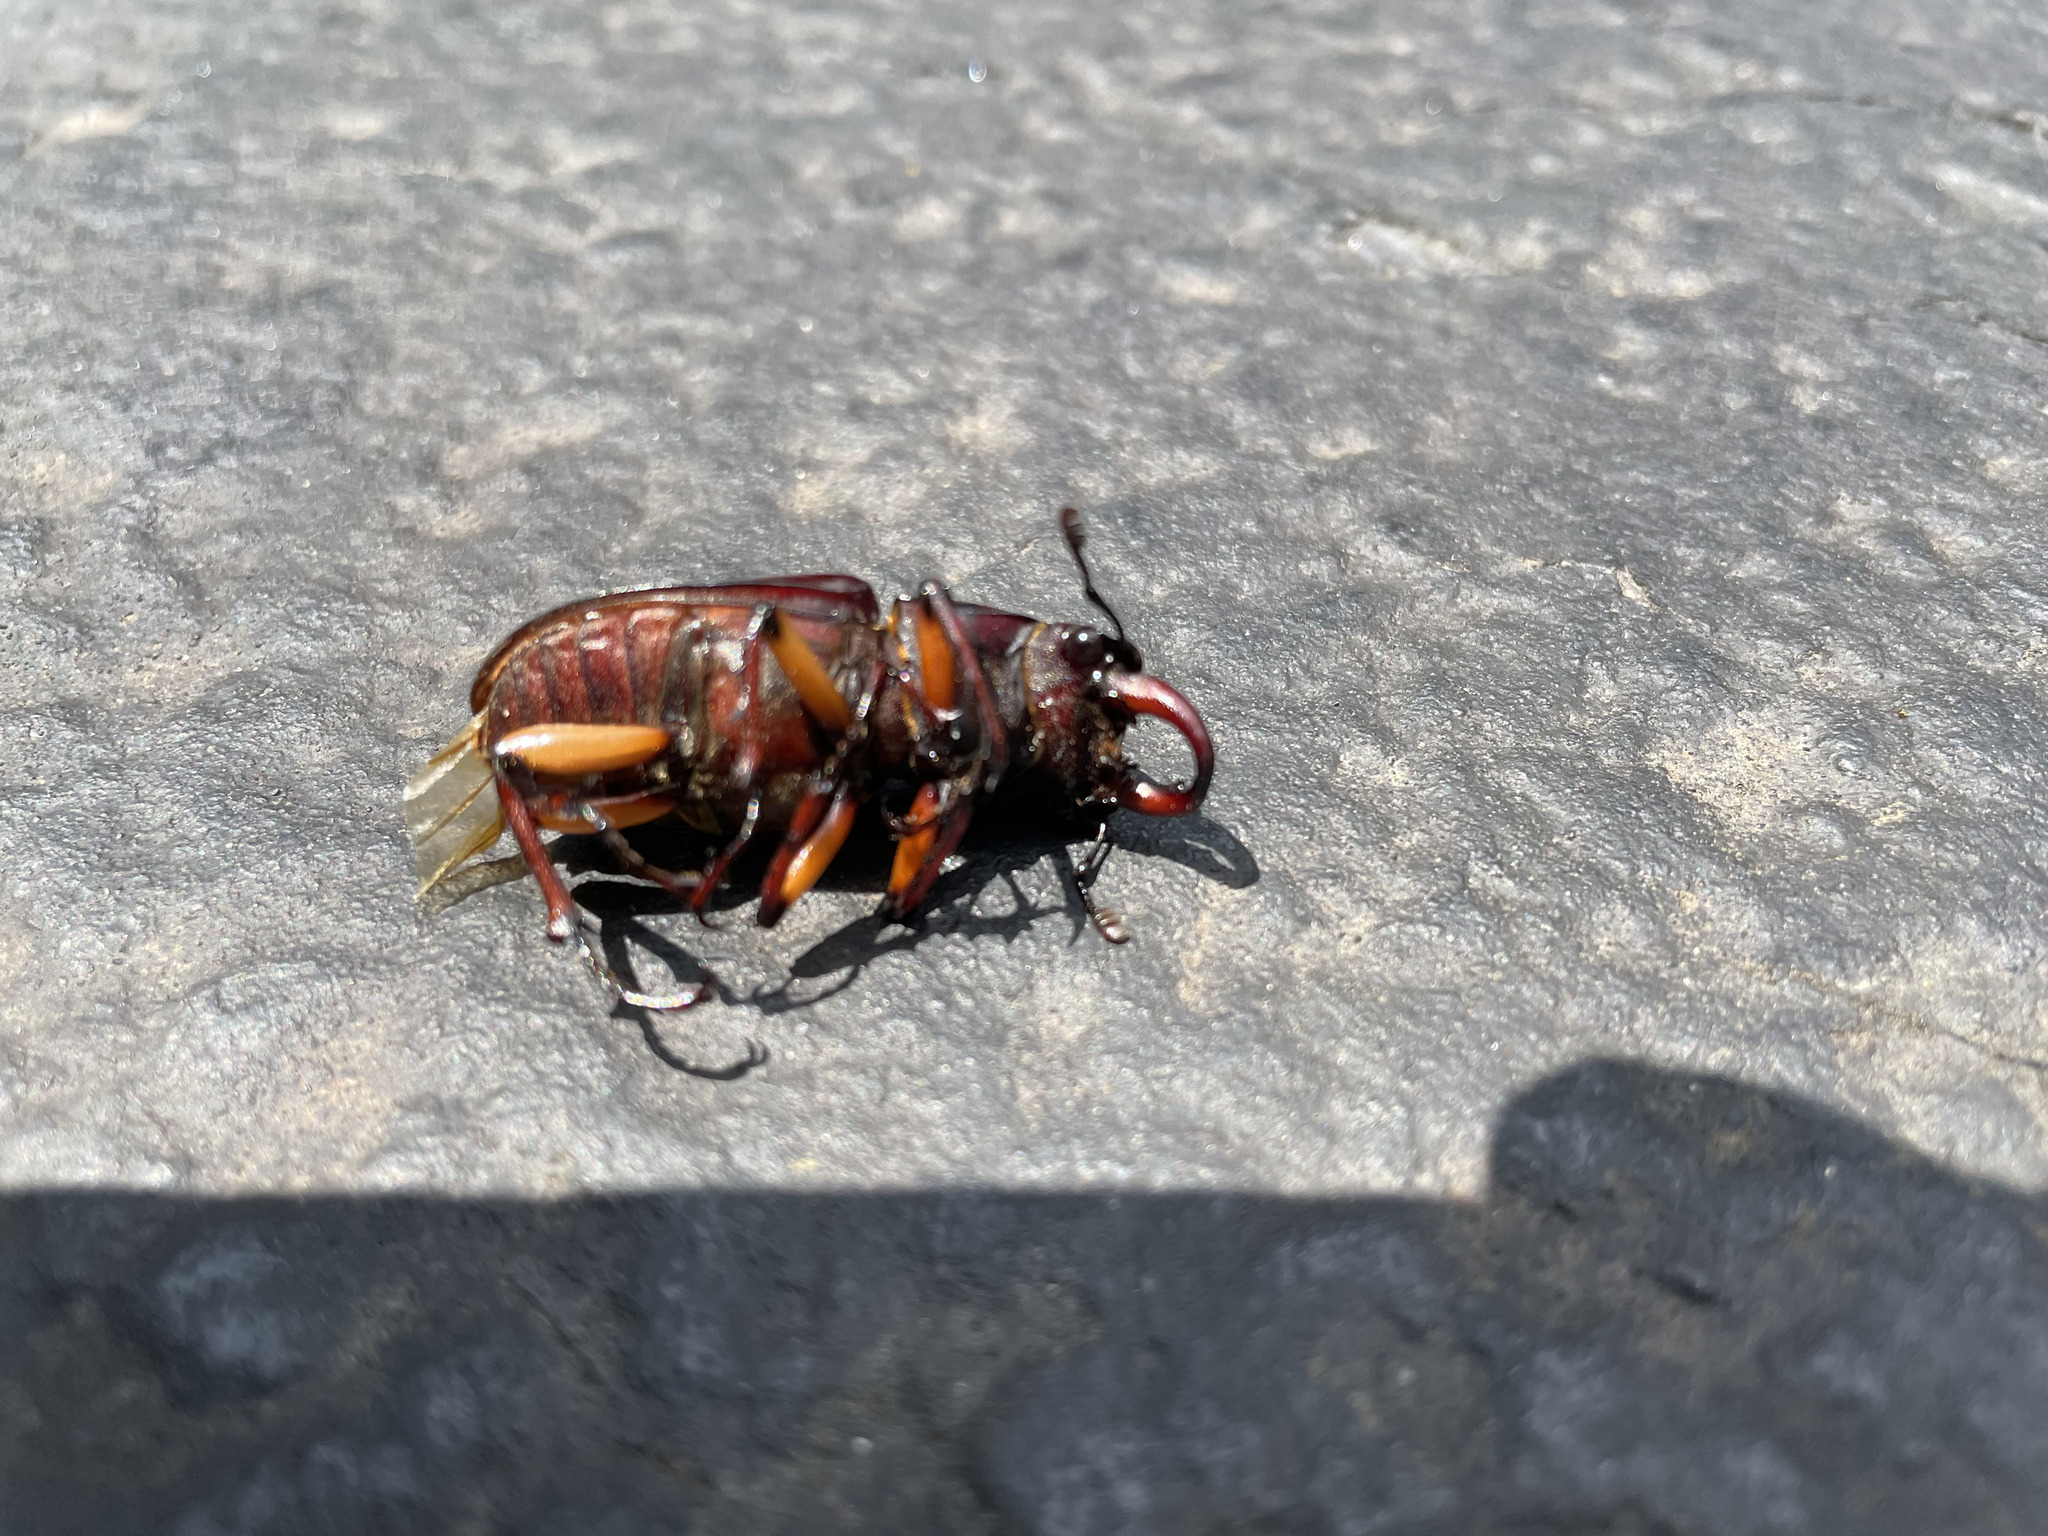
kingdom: Animalia
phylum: Arthropoda
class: Insecta
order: Coleoptera
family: Lucanidae
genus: Lucanus
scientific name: Lucanus capreolus
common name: Stag beetle
